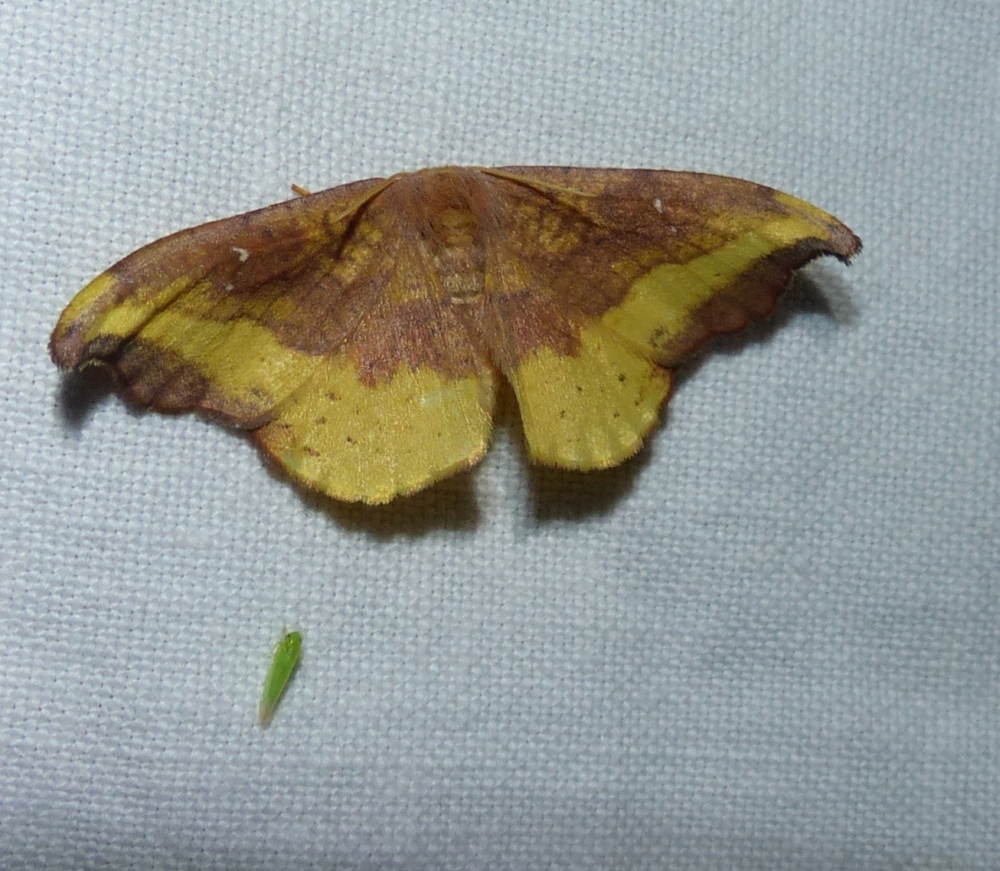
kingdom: Animalia
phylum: Arthropoda
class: Insecta
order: Lepidoptera
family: Drepanidae
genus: Oreta
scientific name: Oreta rosea
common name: Rose hooktip
